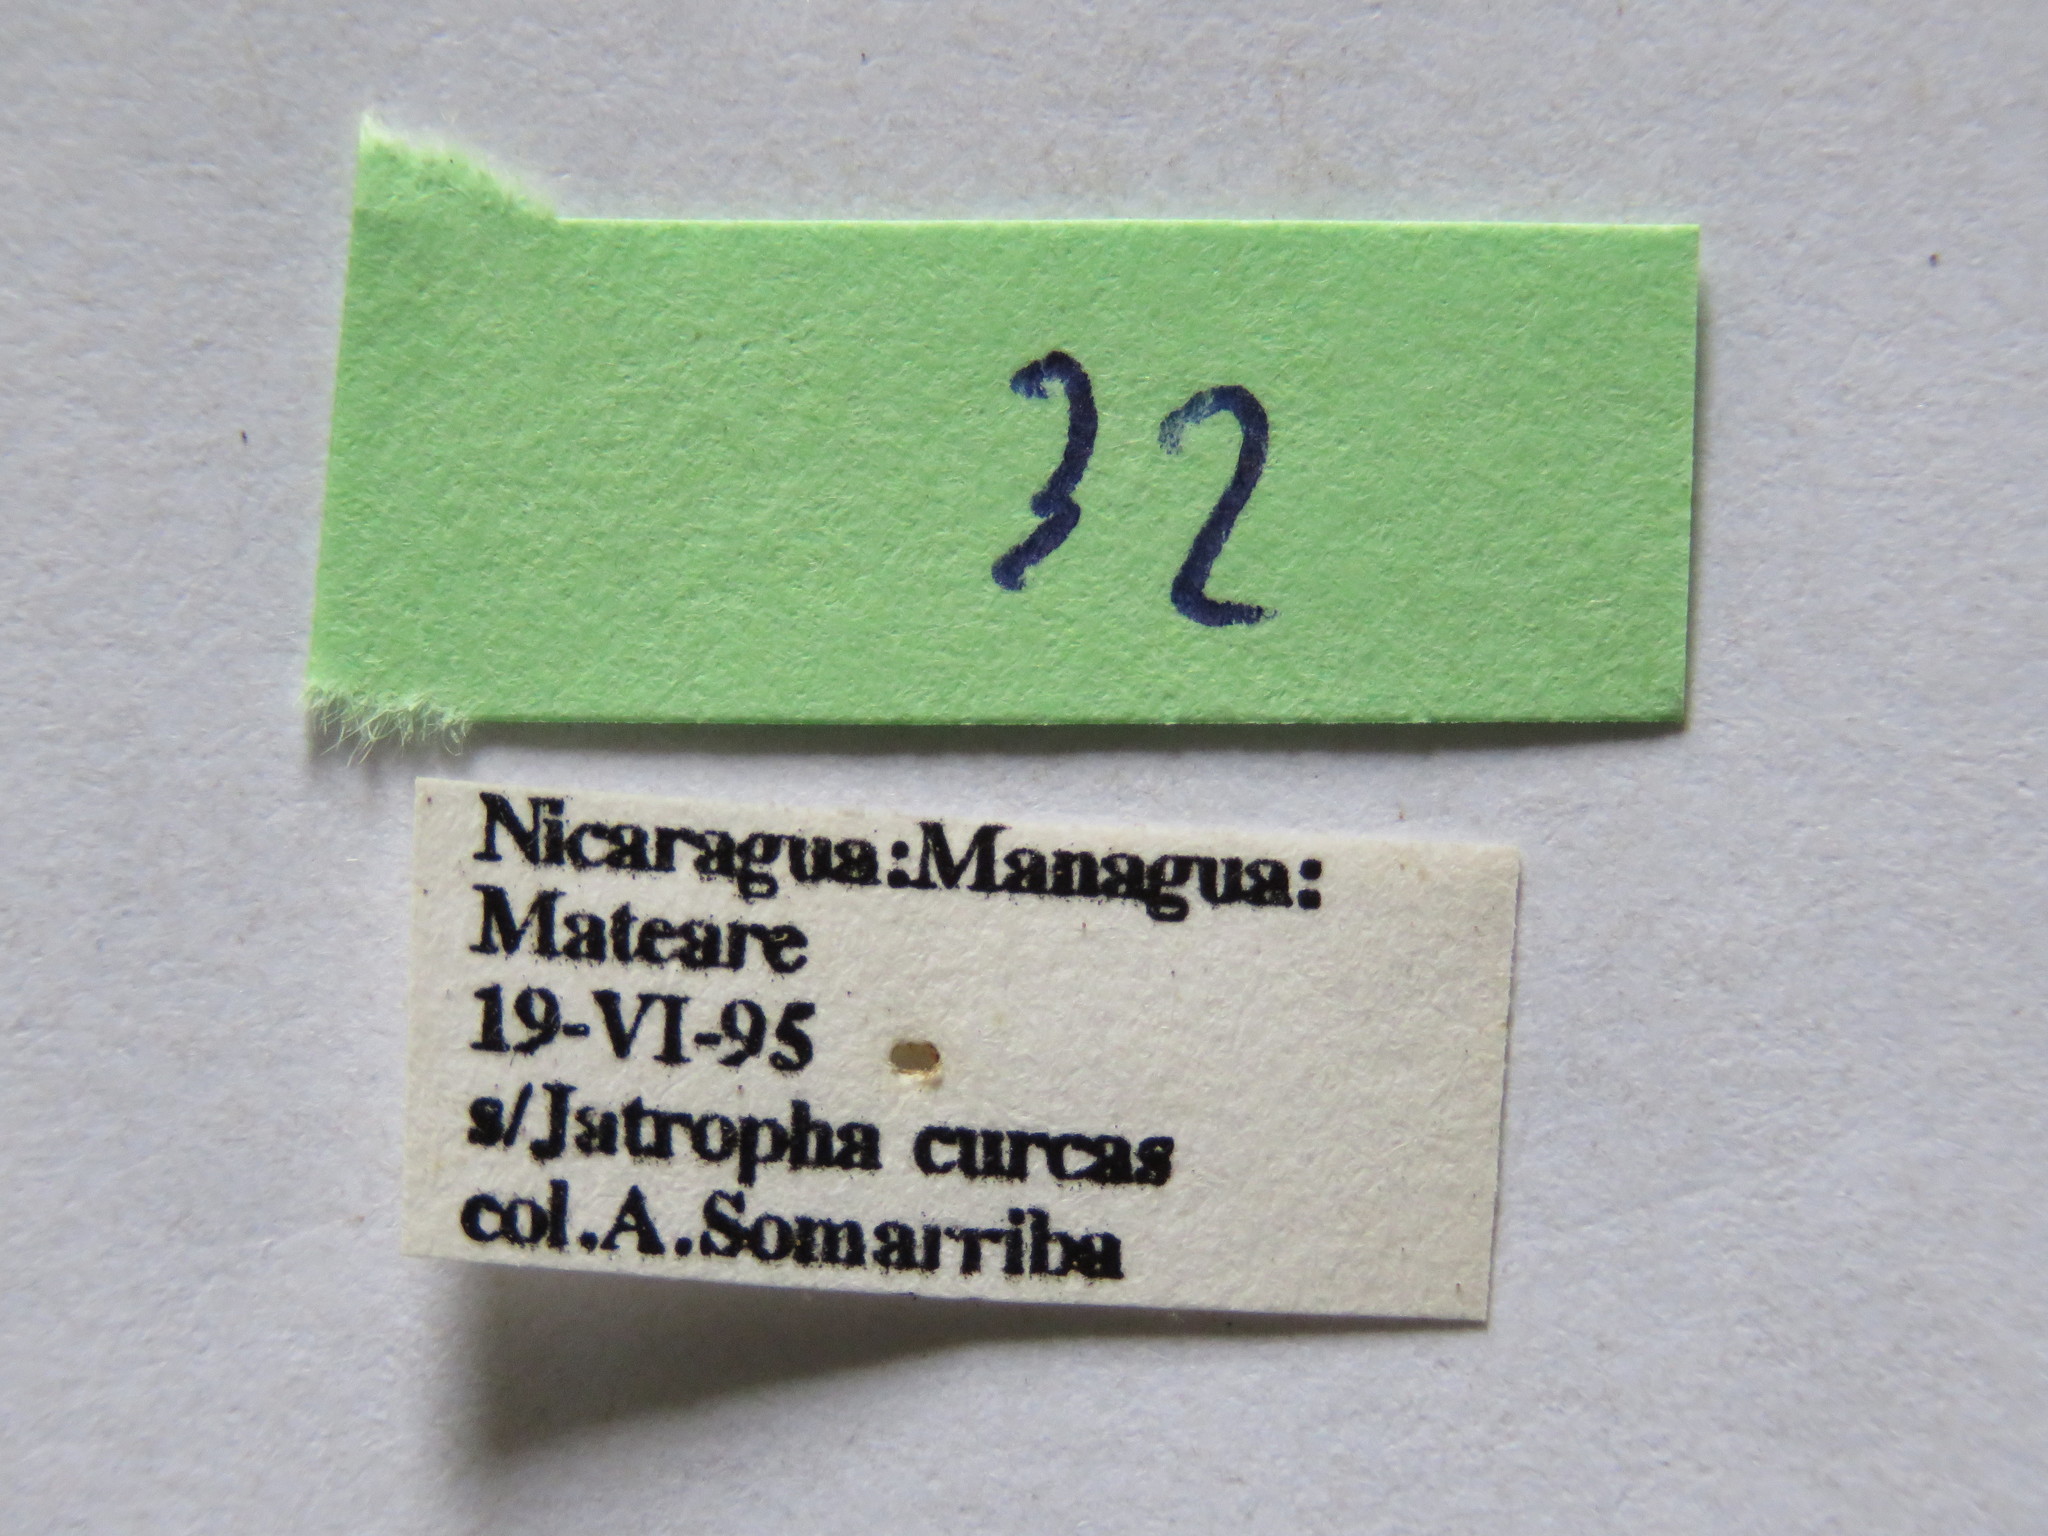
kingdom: Animalia
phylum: Arthropoda
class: Insecta
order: Hemiptera
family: Coreidae
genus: Mamurius
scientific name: Mamurius mopsus
